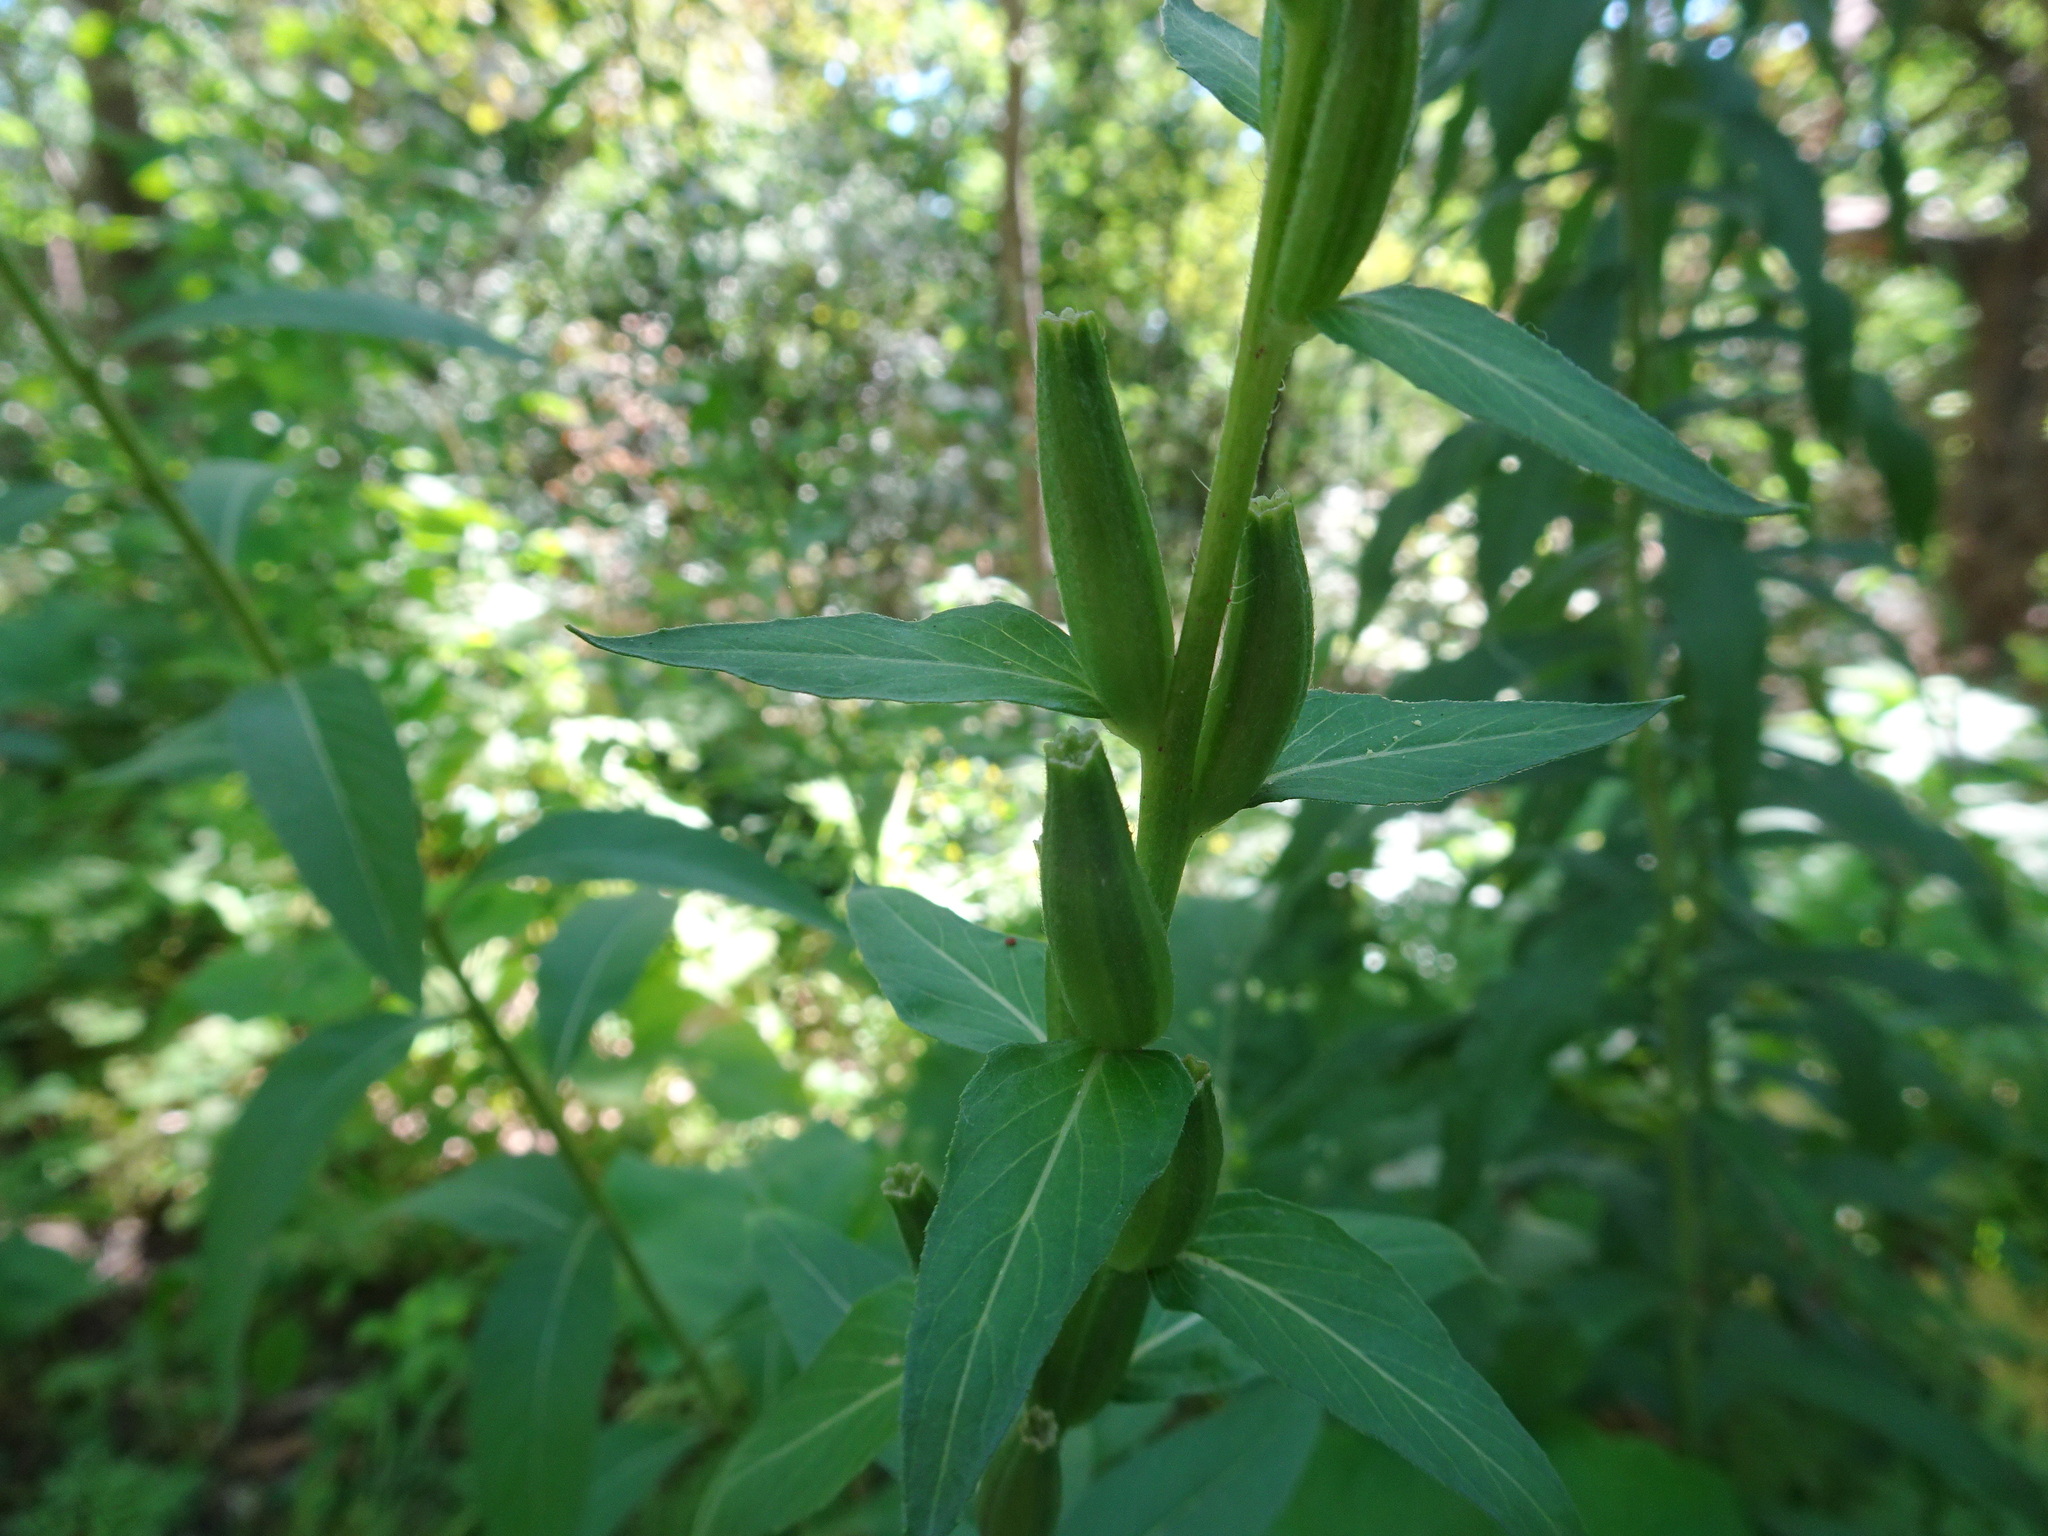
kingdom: Plantae
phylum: Tracheophyta
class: Magnoliopsida
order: Myrtales
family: Onagraceae
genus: Oenothera
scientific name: Oenothera biennis
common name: Common evening-primrose
